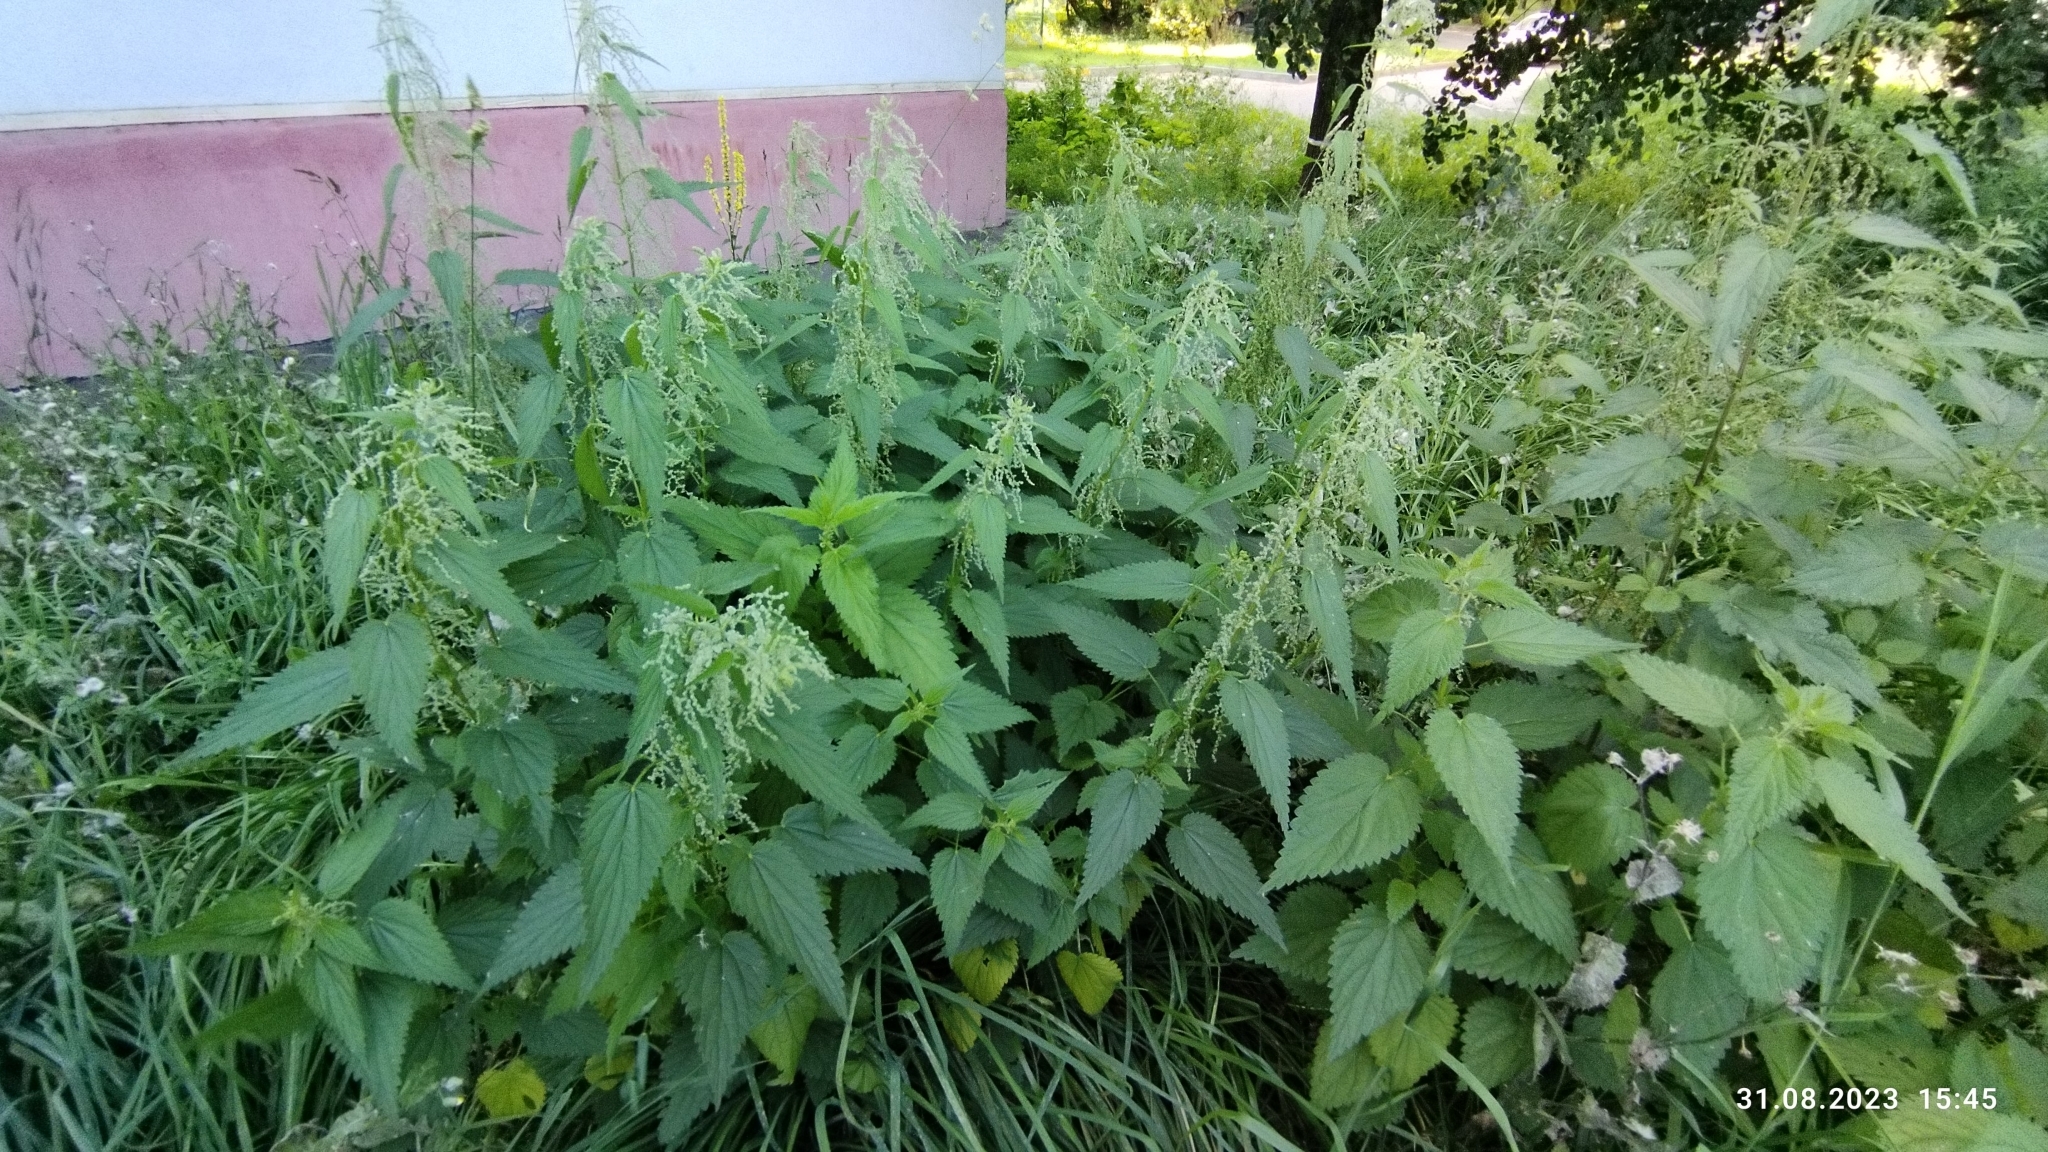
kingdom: Plantae
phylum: Tracheophyta
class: Magnoliopsida
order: Rosales
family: Urticaceae
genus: Urtica
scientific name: Urtica dioica
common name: Common nettle
